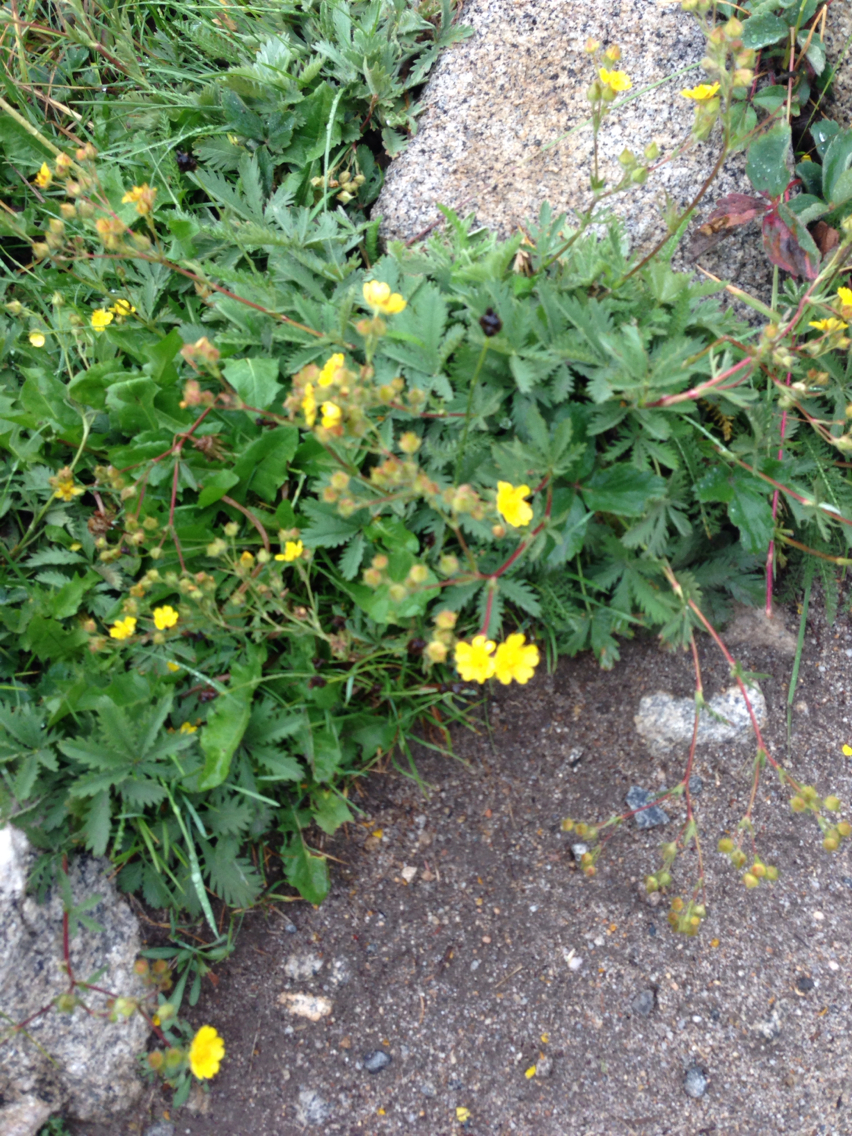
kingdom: Plantae
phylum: Tracheophyta
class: Magnoliopsida
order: Rosales
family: Rosaceae
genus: Potentilla
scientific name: Potentilla gracilis
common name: Graceful cinquefoil
